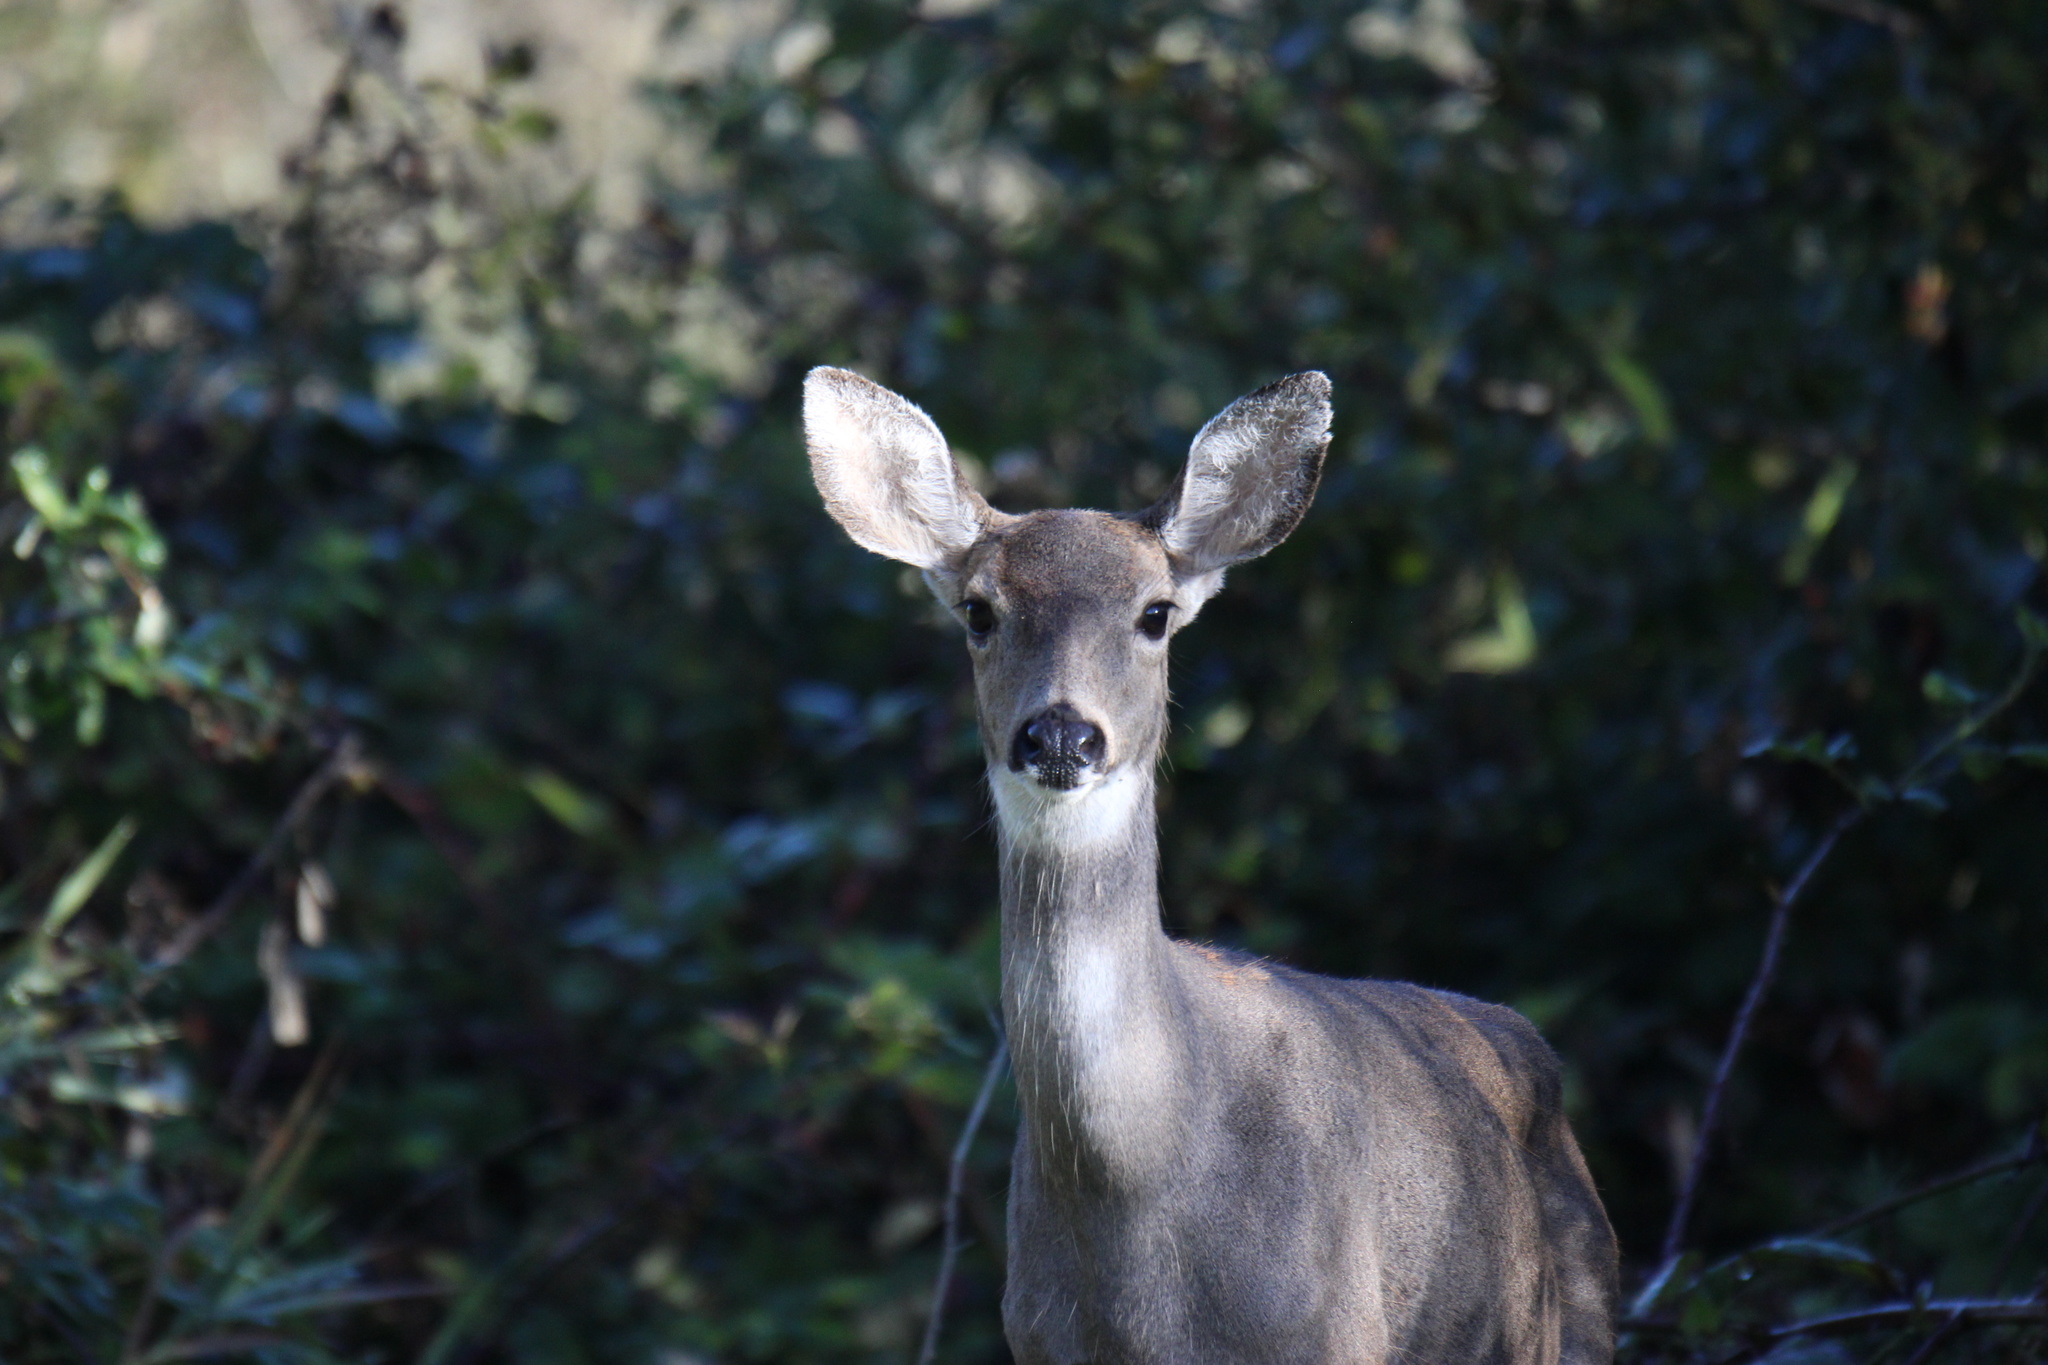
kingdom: Animalia
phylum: Chordata
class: Mammalia
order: Artiodactyla
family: Cervidae
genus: Odocoileus
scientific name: Odocoileus hemionus
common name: Mule deer
